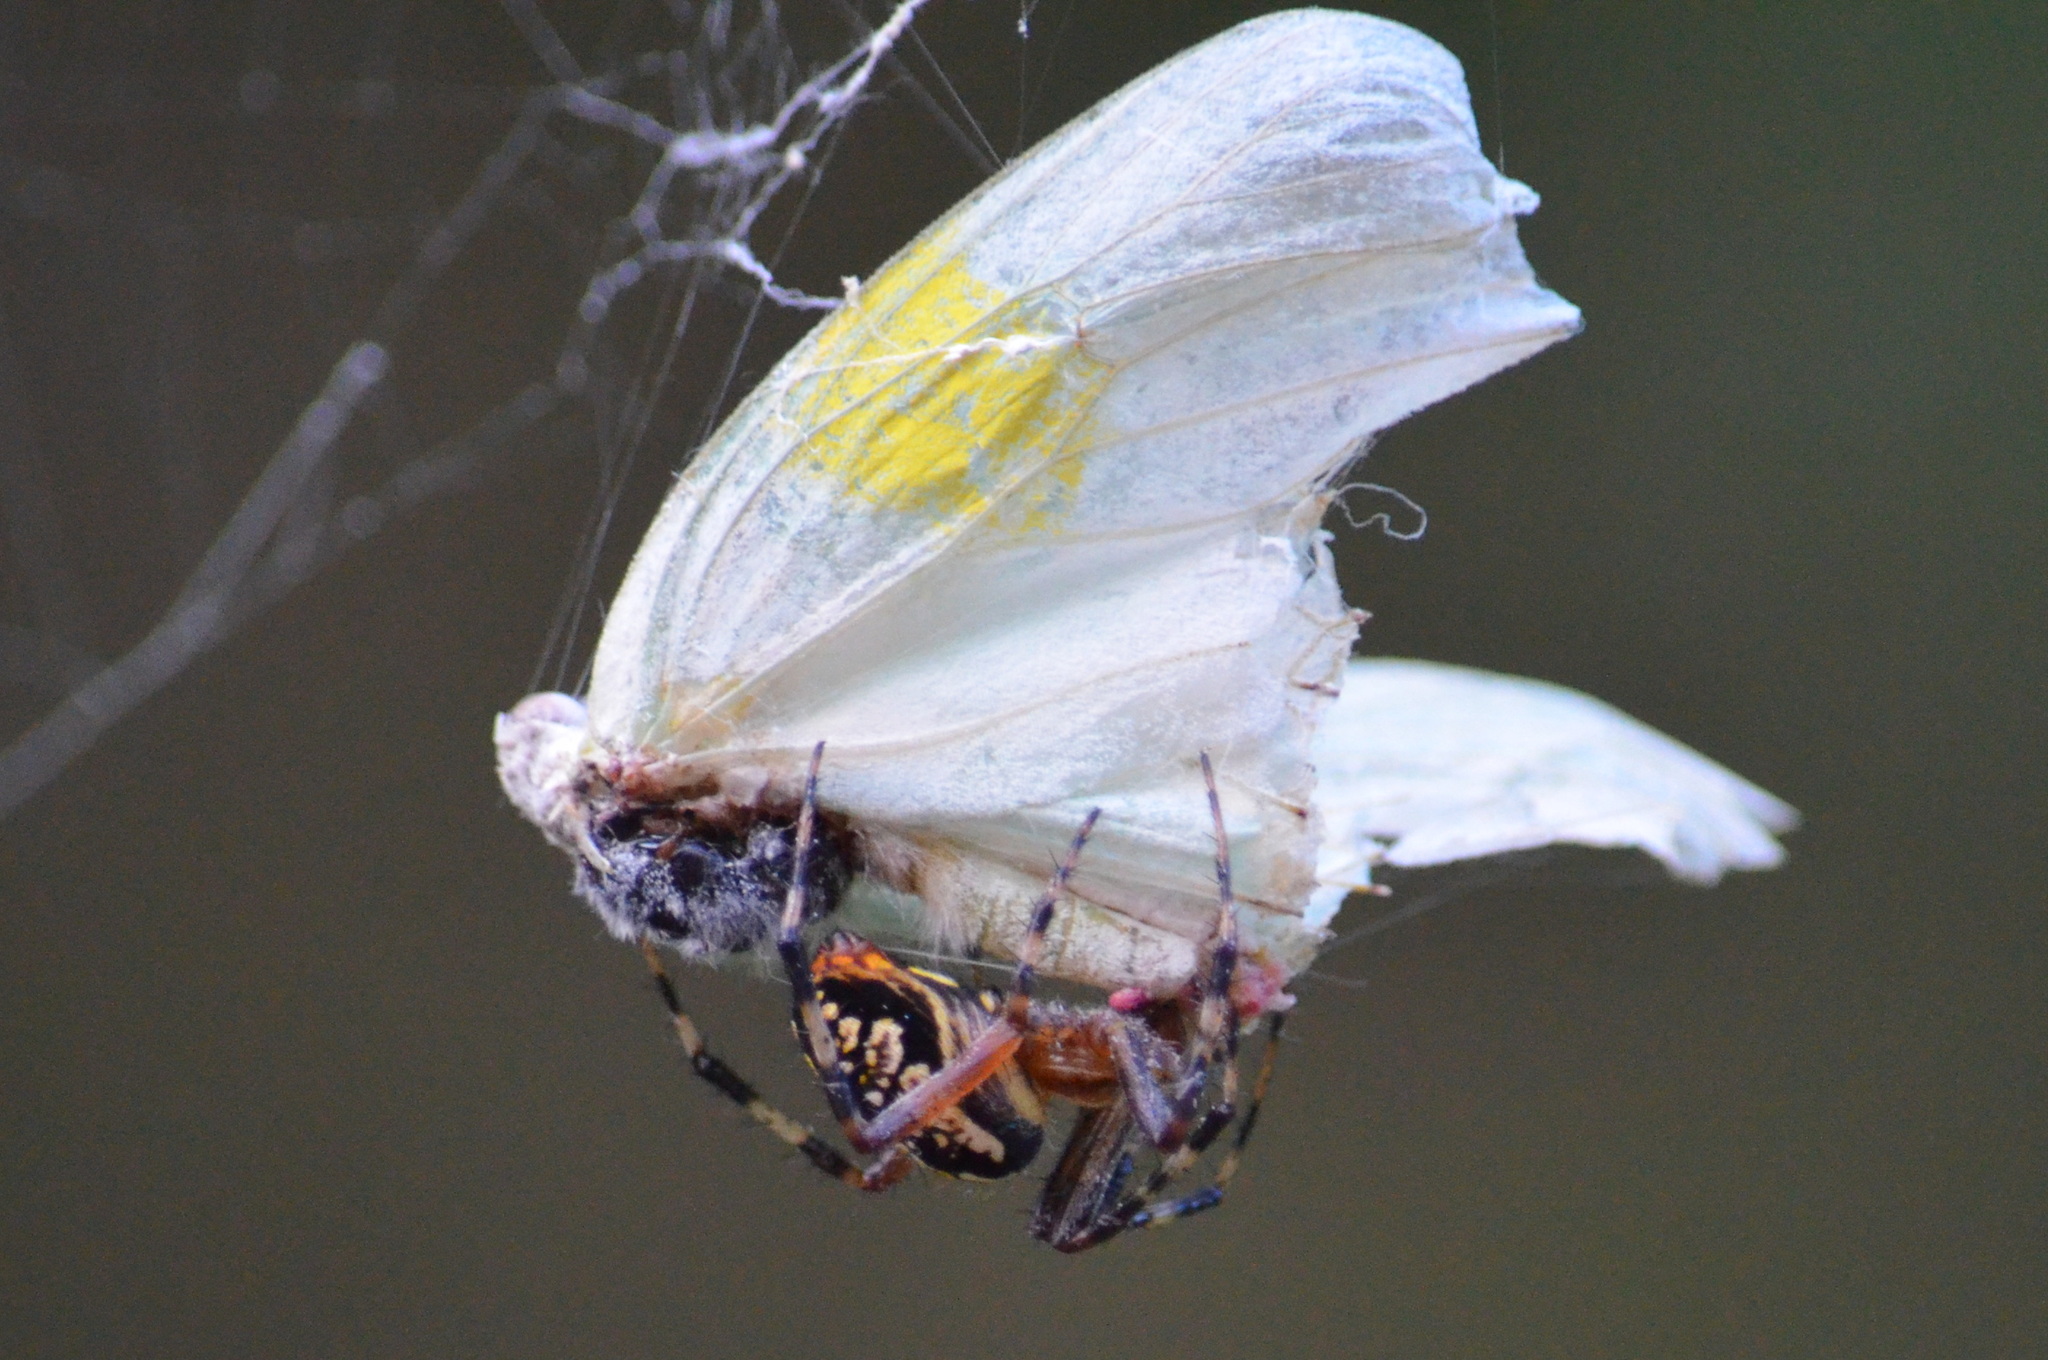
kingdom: Animalia
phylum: Arthropoda
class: Arachnida
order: Araneae
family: Araneidae
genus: Neoscona
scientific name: Neoscona oaxacensis
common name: Orb weavers
